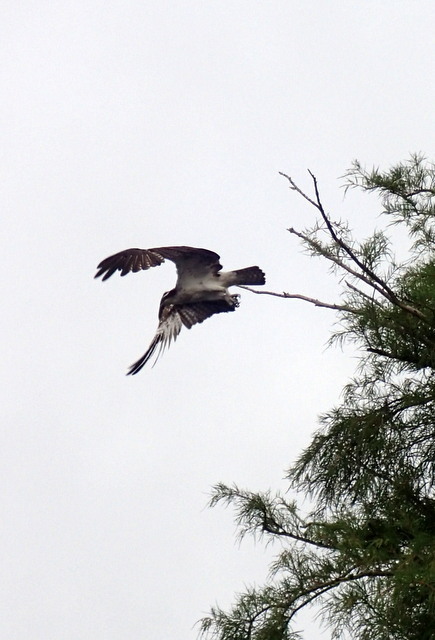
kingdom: Animalia
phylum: Chordata
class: Aves
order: Accipitriformes
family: Pandionidae
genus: Pandion
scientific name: Pandion haliaetus
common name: Osprey
